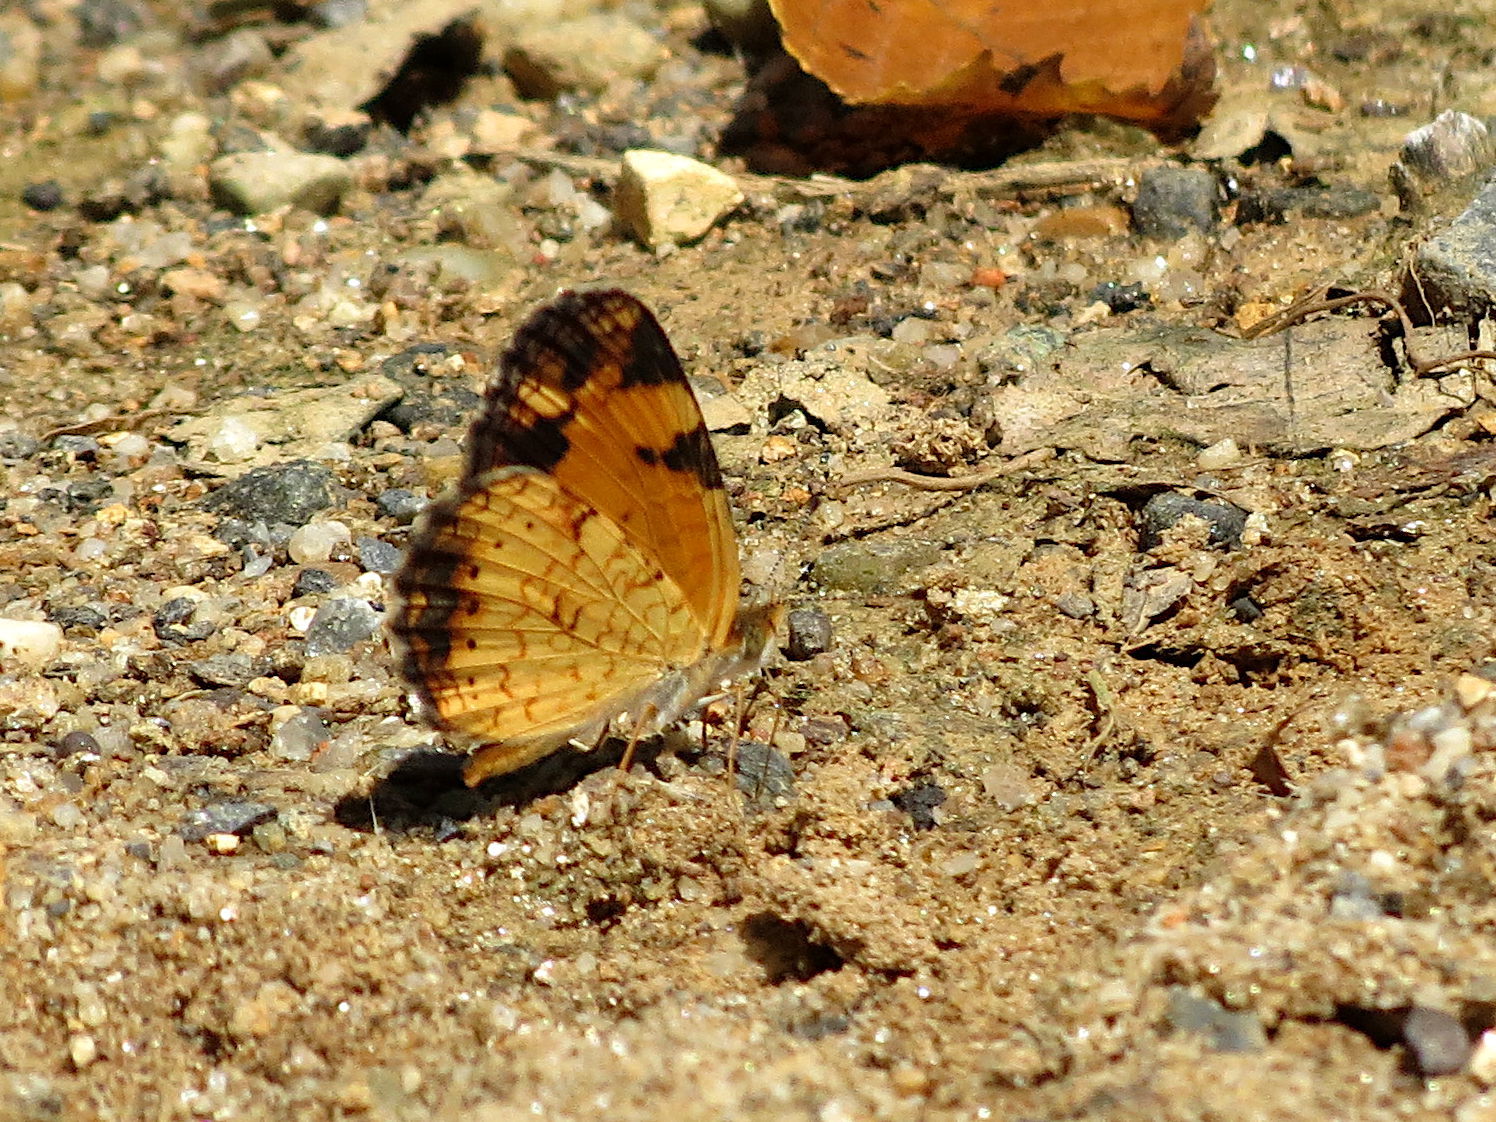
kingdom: Animalia
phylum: Arthropoda
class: Insecta
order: Lepidoptera
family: Nymphalidae
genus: Phyciodes
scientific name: Phyciodes tharos
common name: Pearl crescent
